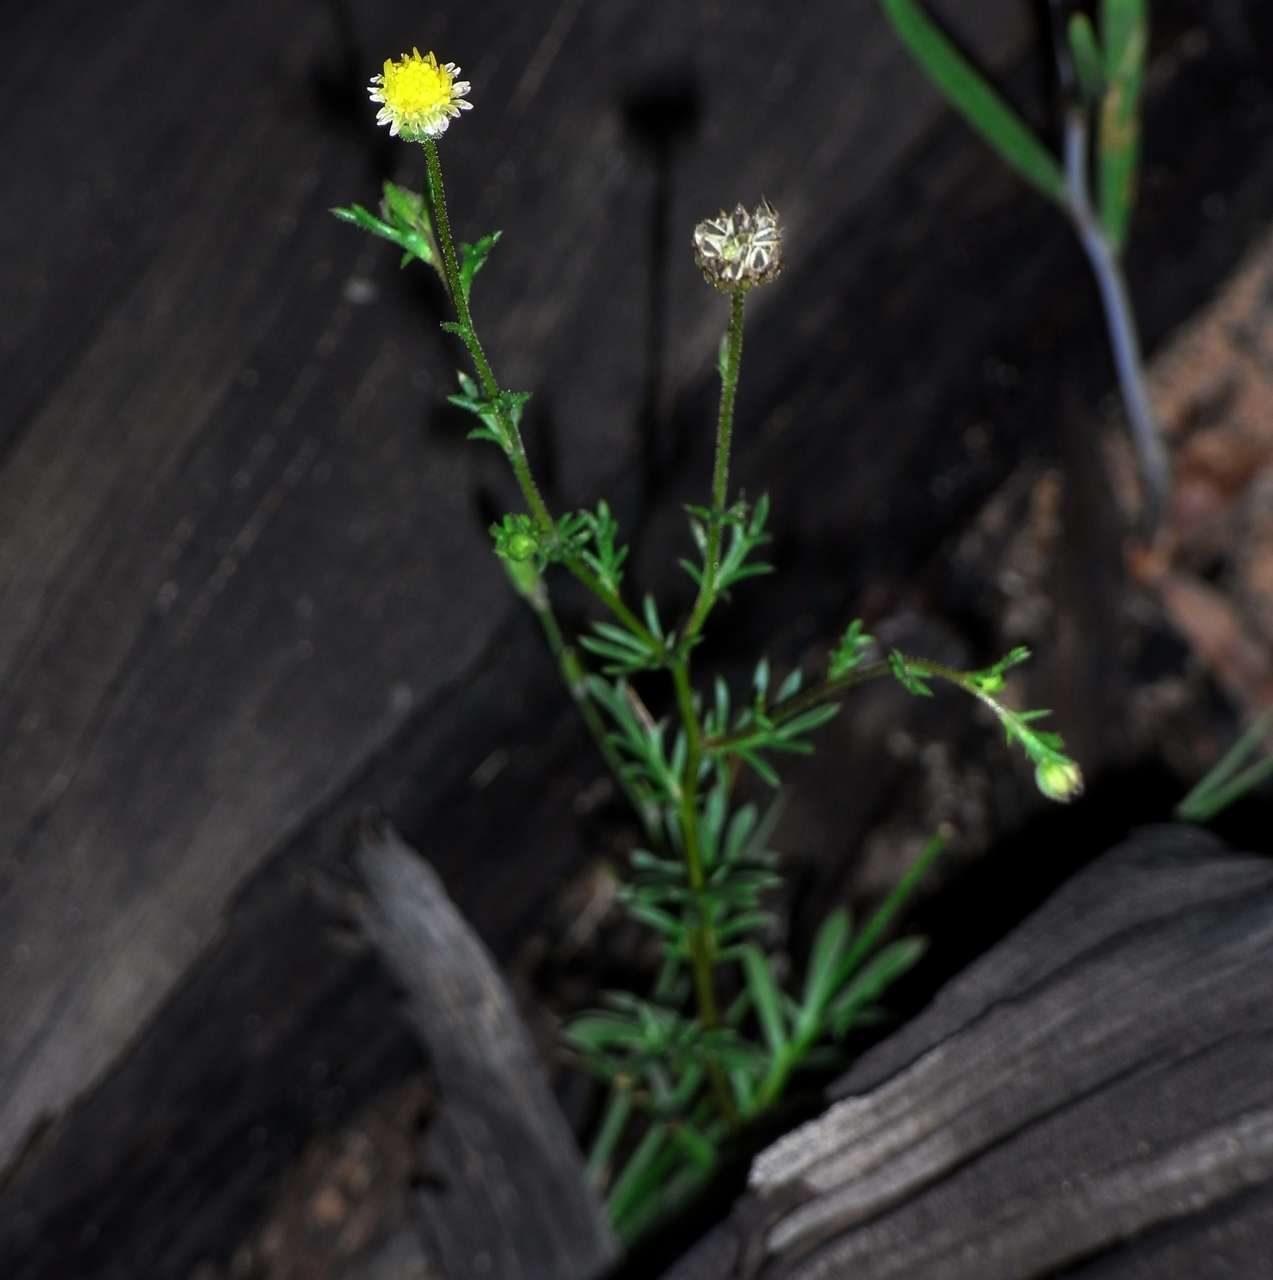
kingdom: Plantae
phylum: Tracheophyta
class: Magnoliopsida
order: Asterales
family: Asteraceae
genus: Brachyscome
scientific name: Brachyscome ciliaris
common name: Variable daisy
